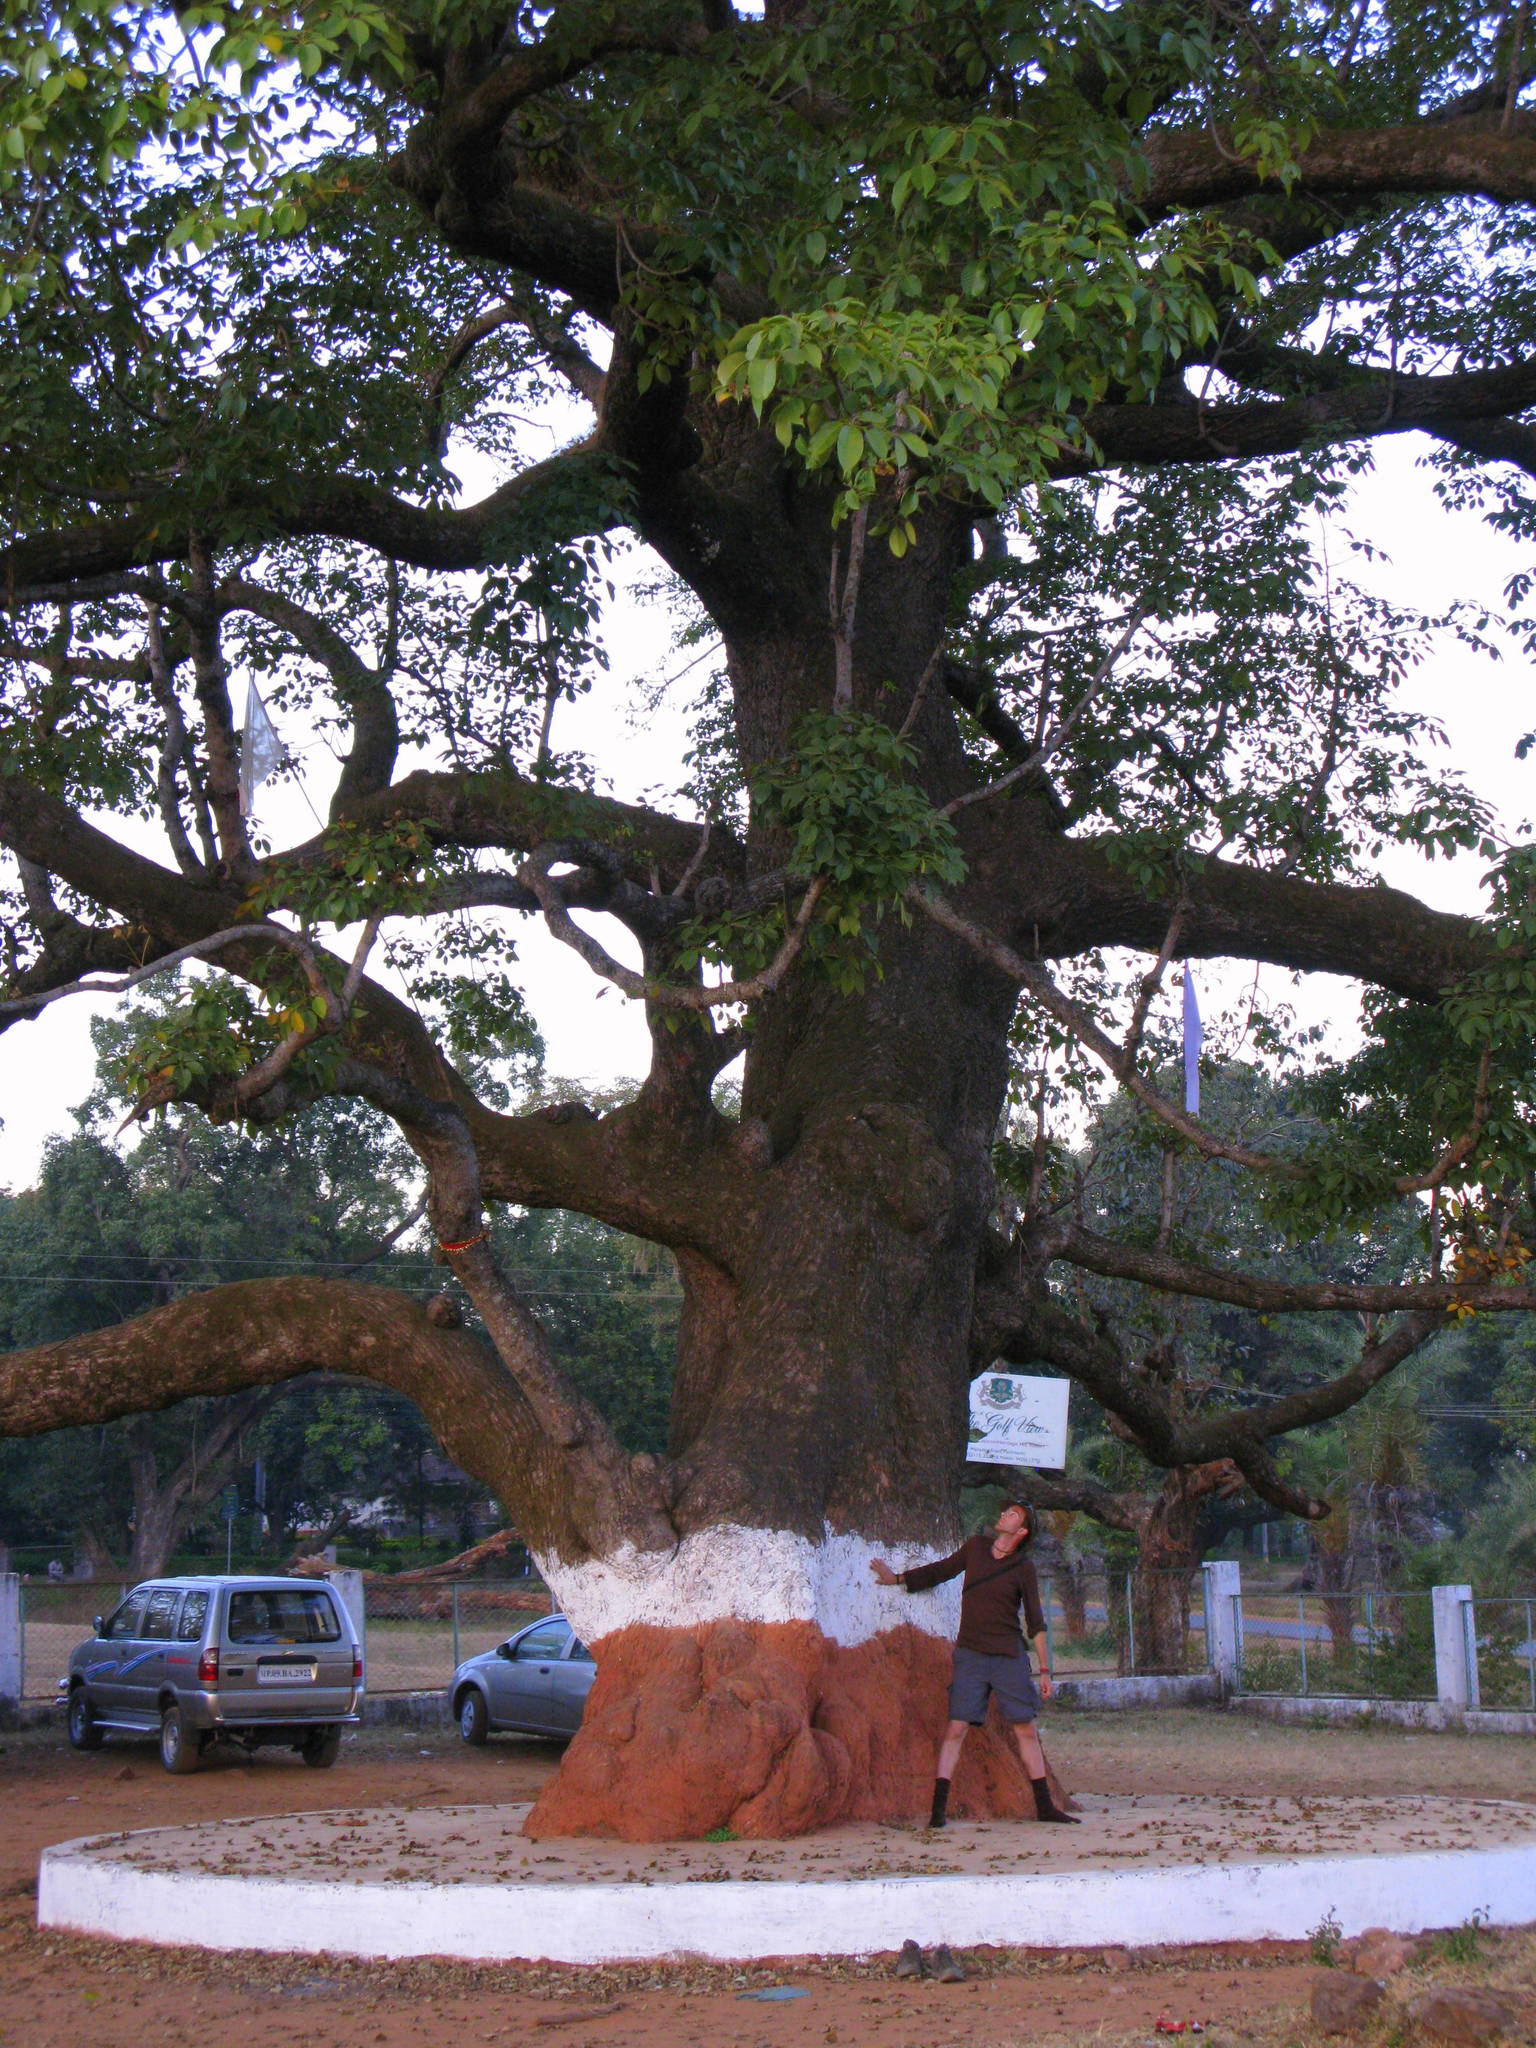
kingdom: Plantae
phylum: Tracheophyta
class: Magnoliopsida
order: Malvales
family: Malvaceae
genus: Bombax
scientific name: Bombax ceiba
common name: Northern-cottonwood
